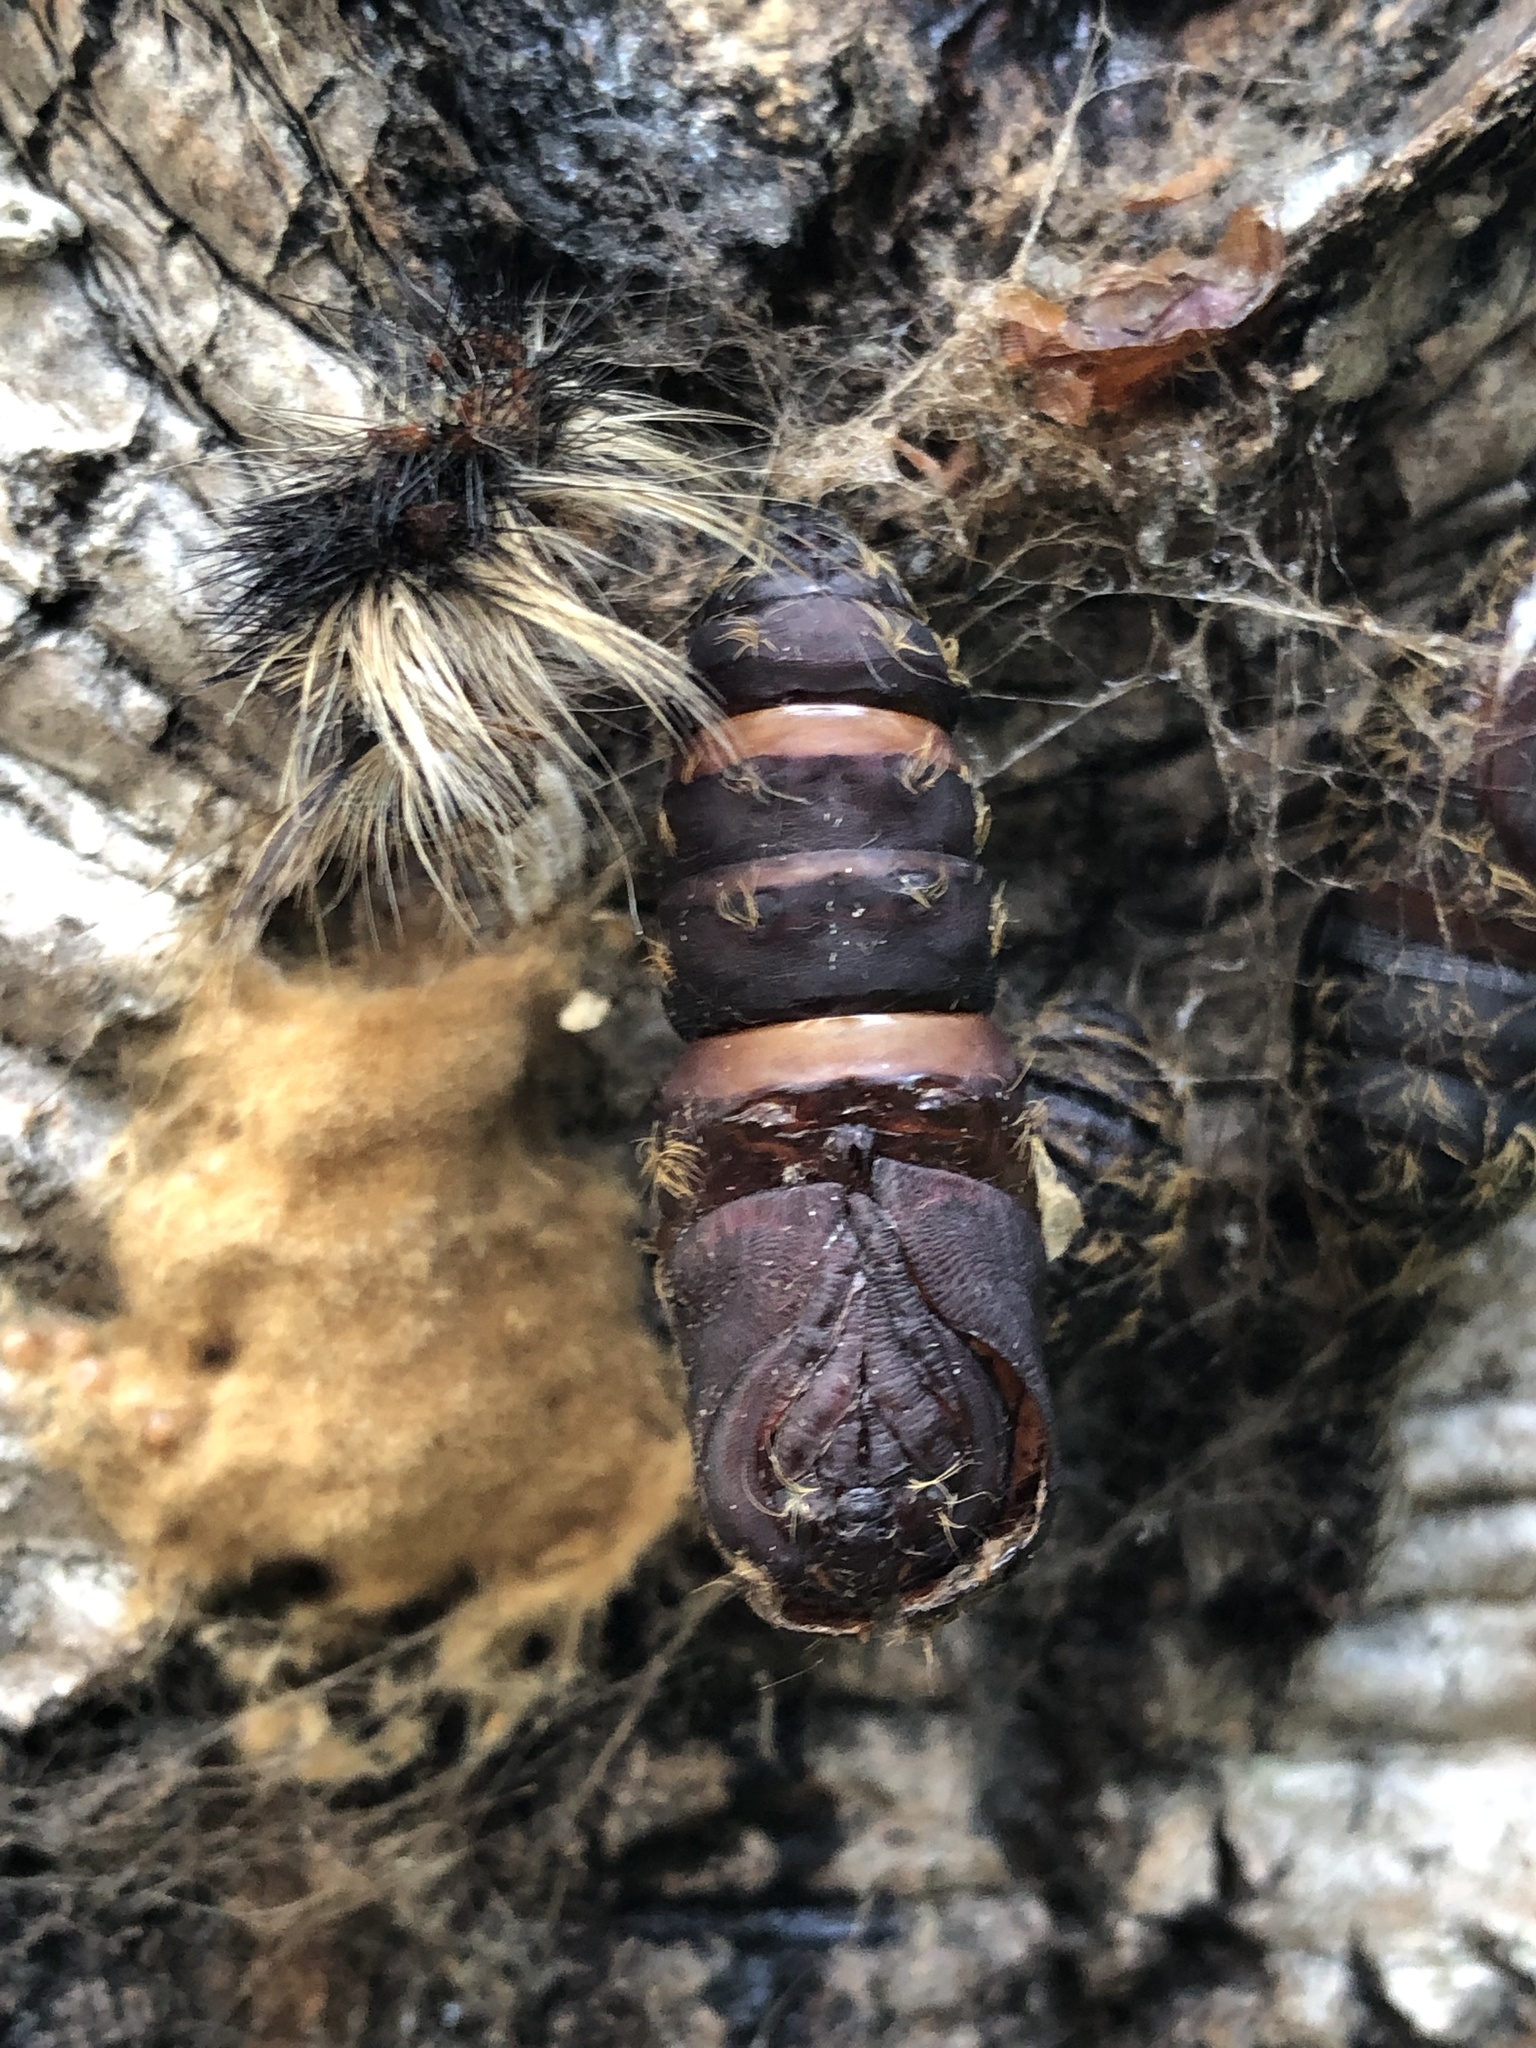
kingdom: Animalia
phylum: Arthropoda
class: Insecta
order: Lepidoptera
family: Erebidae
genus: Lymantria
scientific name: Lymantria dispar
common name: Gypsy moth
